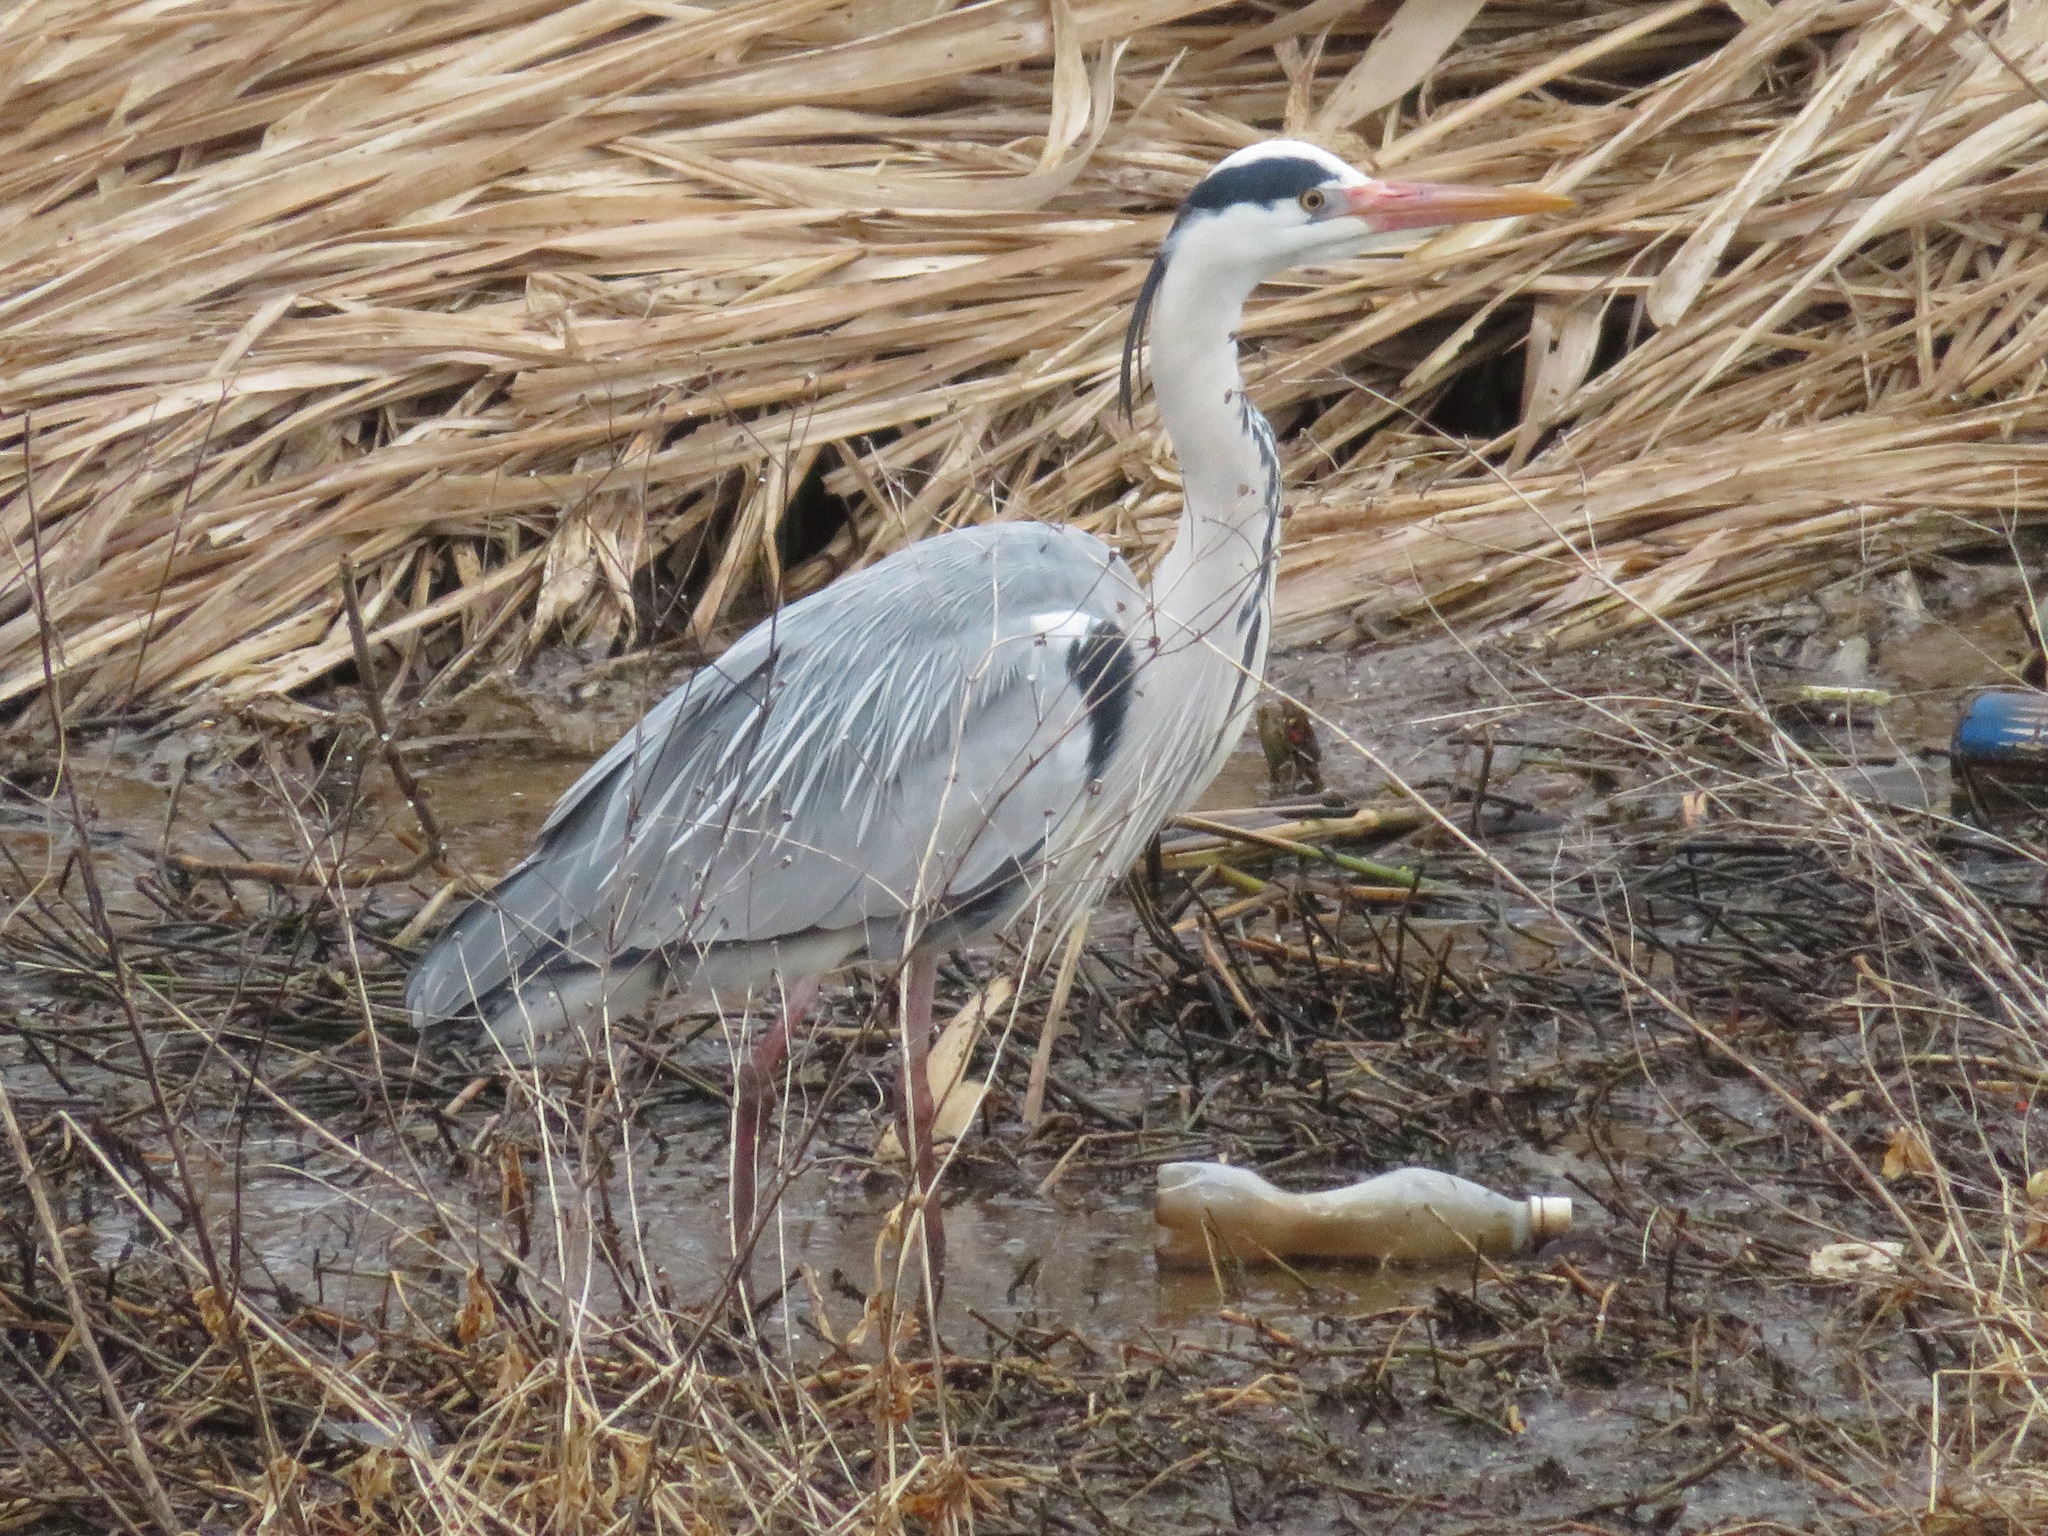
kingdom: Animalia
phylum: Chordata
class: Aves
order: Pelecaniformes
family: Ardeidae
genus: Ardea
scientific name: Ardea cinerea
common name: Grey heron
